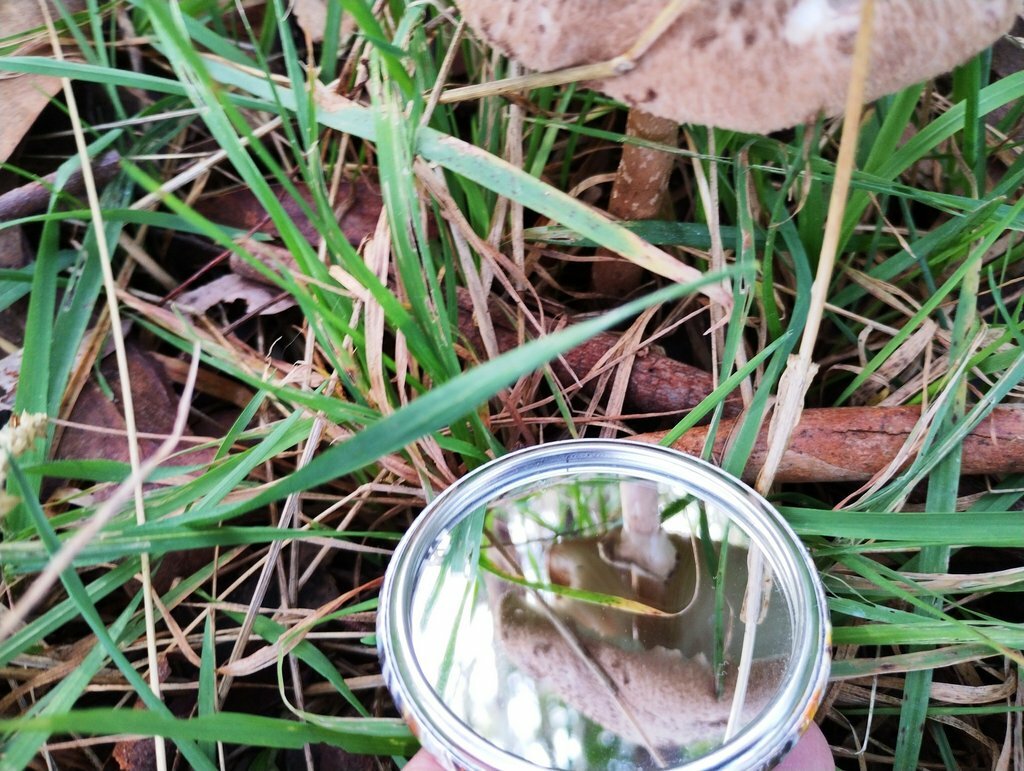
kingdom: Fungi
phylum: Basidiomycota
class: Agaricomycetes
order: Agaricales
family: Agaricaceae
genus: Macrolepiota
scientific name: Macrolepiota clelandii
